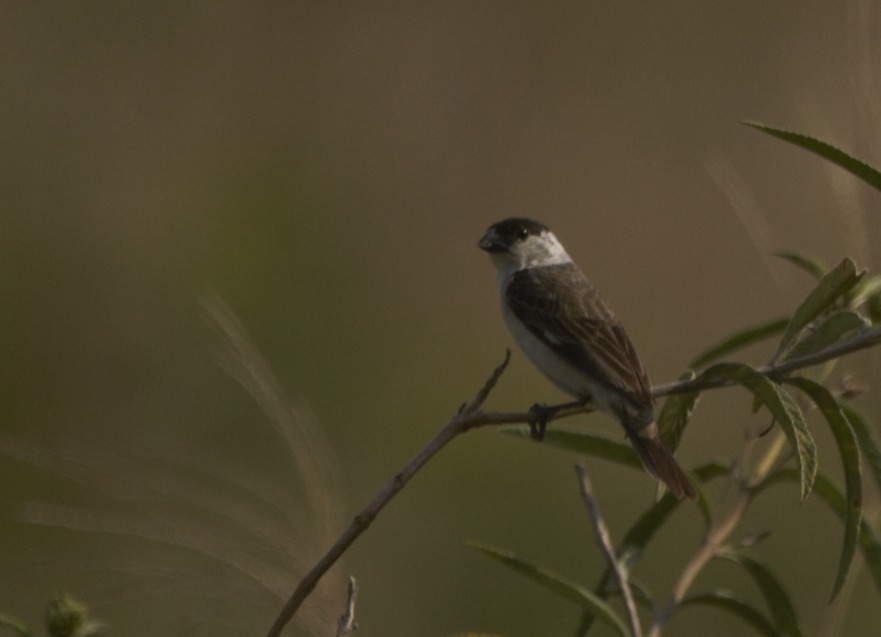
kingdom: Animalia
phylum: Chordata
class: Aves
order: Passeriformes
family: Thraupidae
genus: Sporophila
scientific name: Sporophila pileata
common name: Pearly-bellied seedeater
